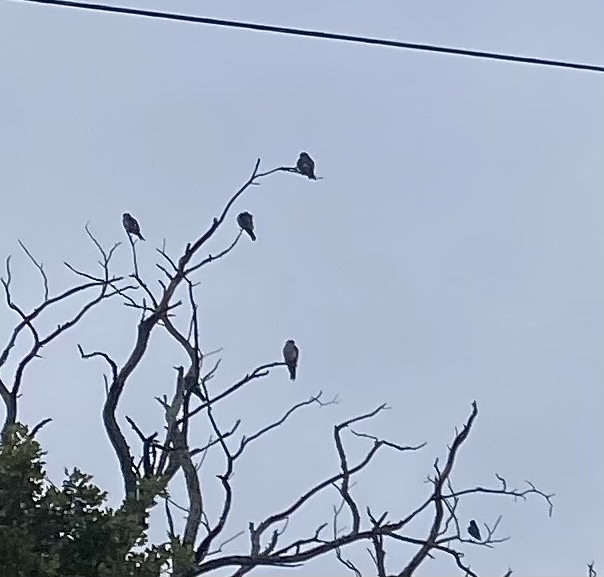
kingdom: Animalia
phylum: Chordata
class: Aves
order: Accipitriformes
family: Accipitridae
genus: Ictinia
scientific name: Ictinia mississippiensis
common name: Mississippi kite
